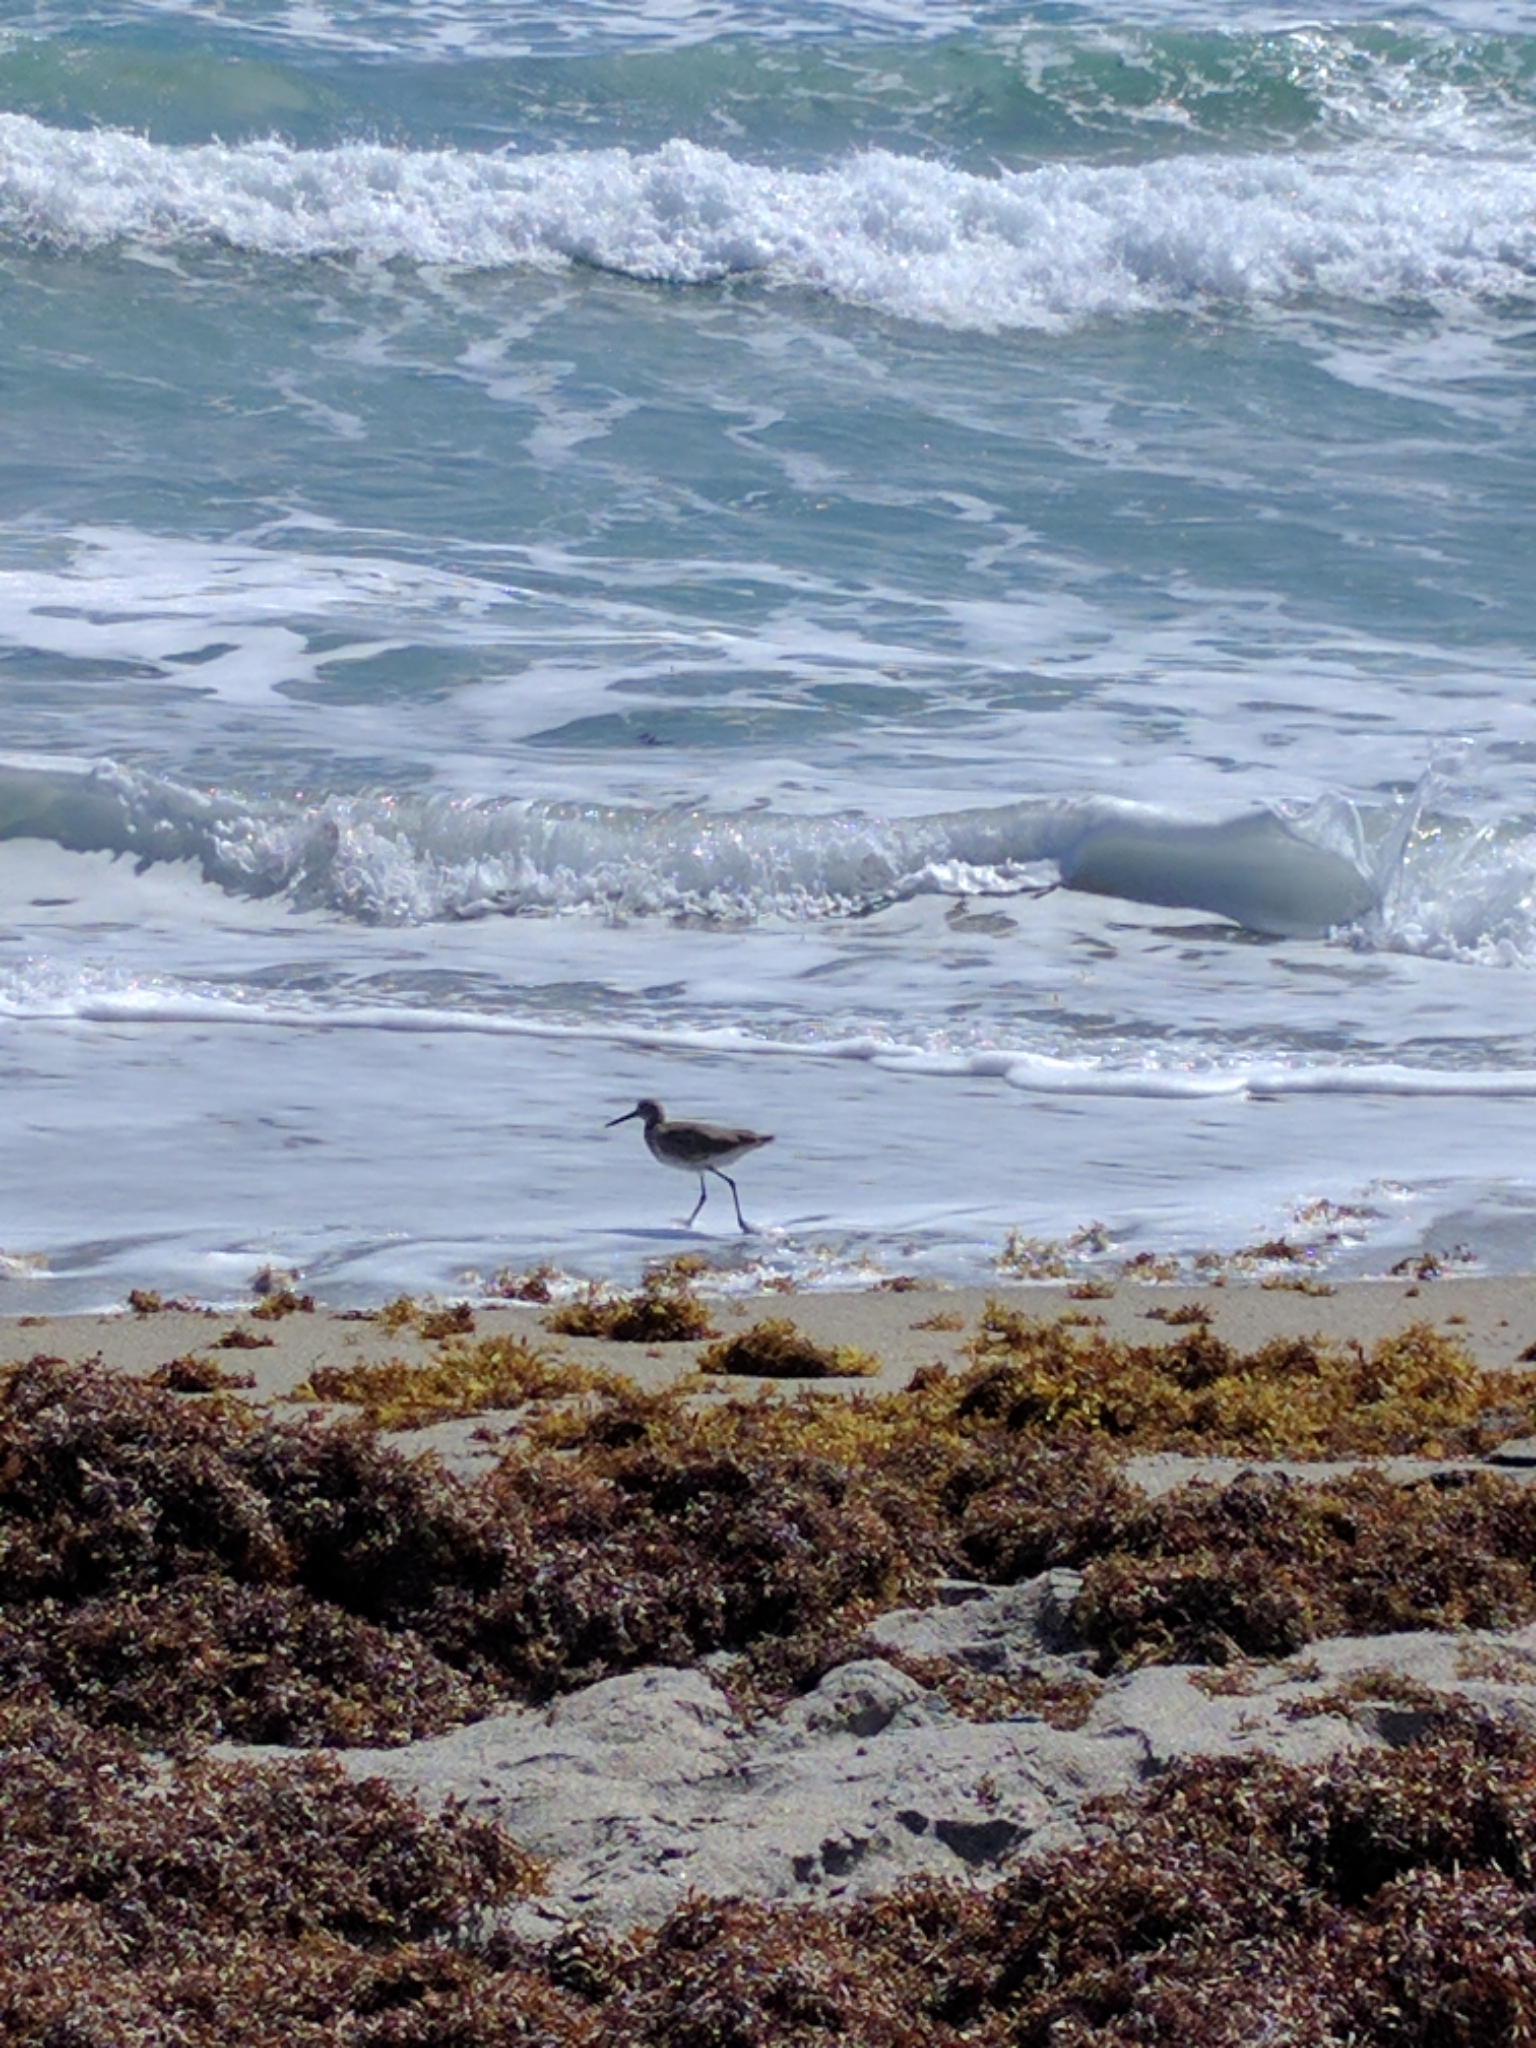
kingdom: Animalia
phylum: Chordata
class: Aves
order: Charadriiformes
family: Scolopacidae
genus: Tringa
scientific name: Tringa semipalmata
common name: Willet
